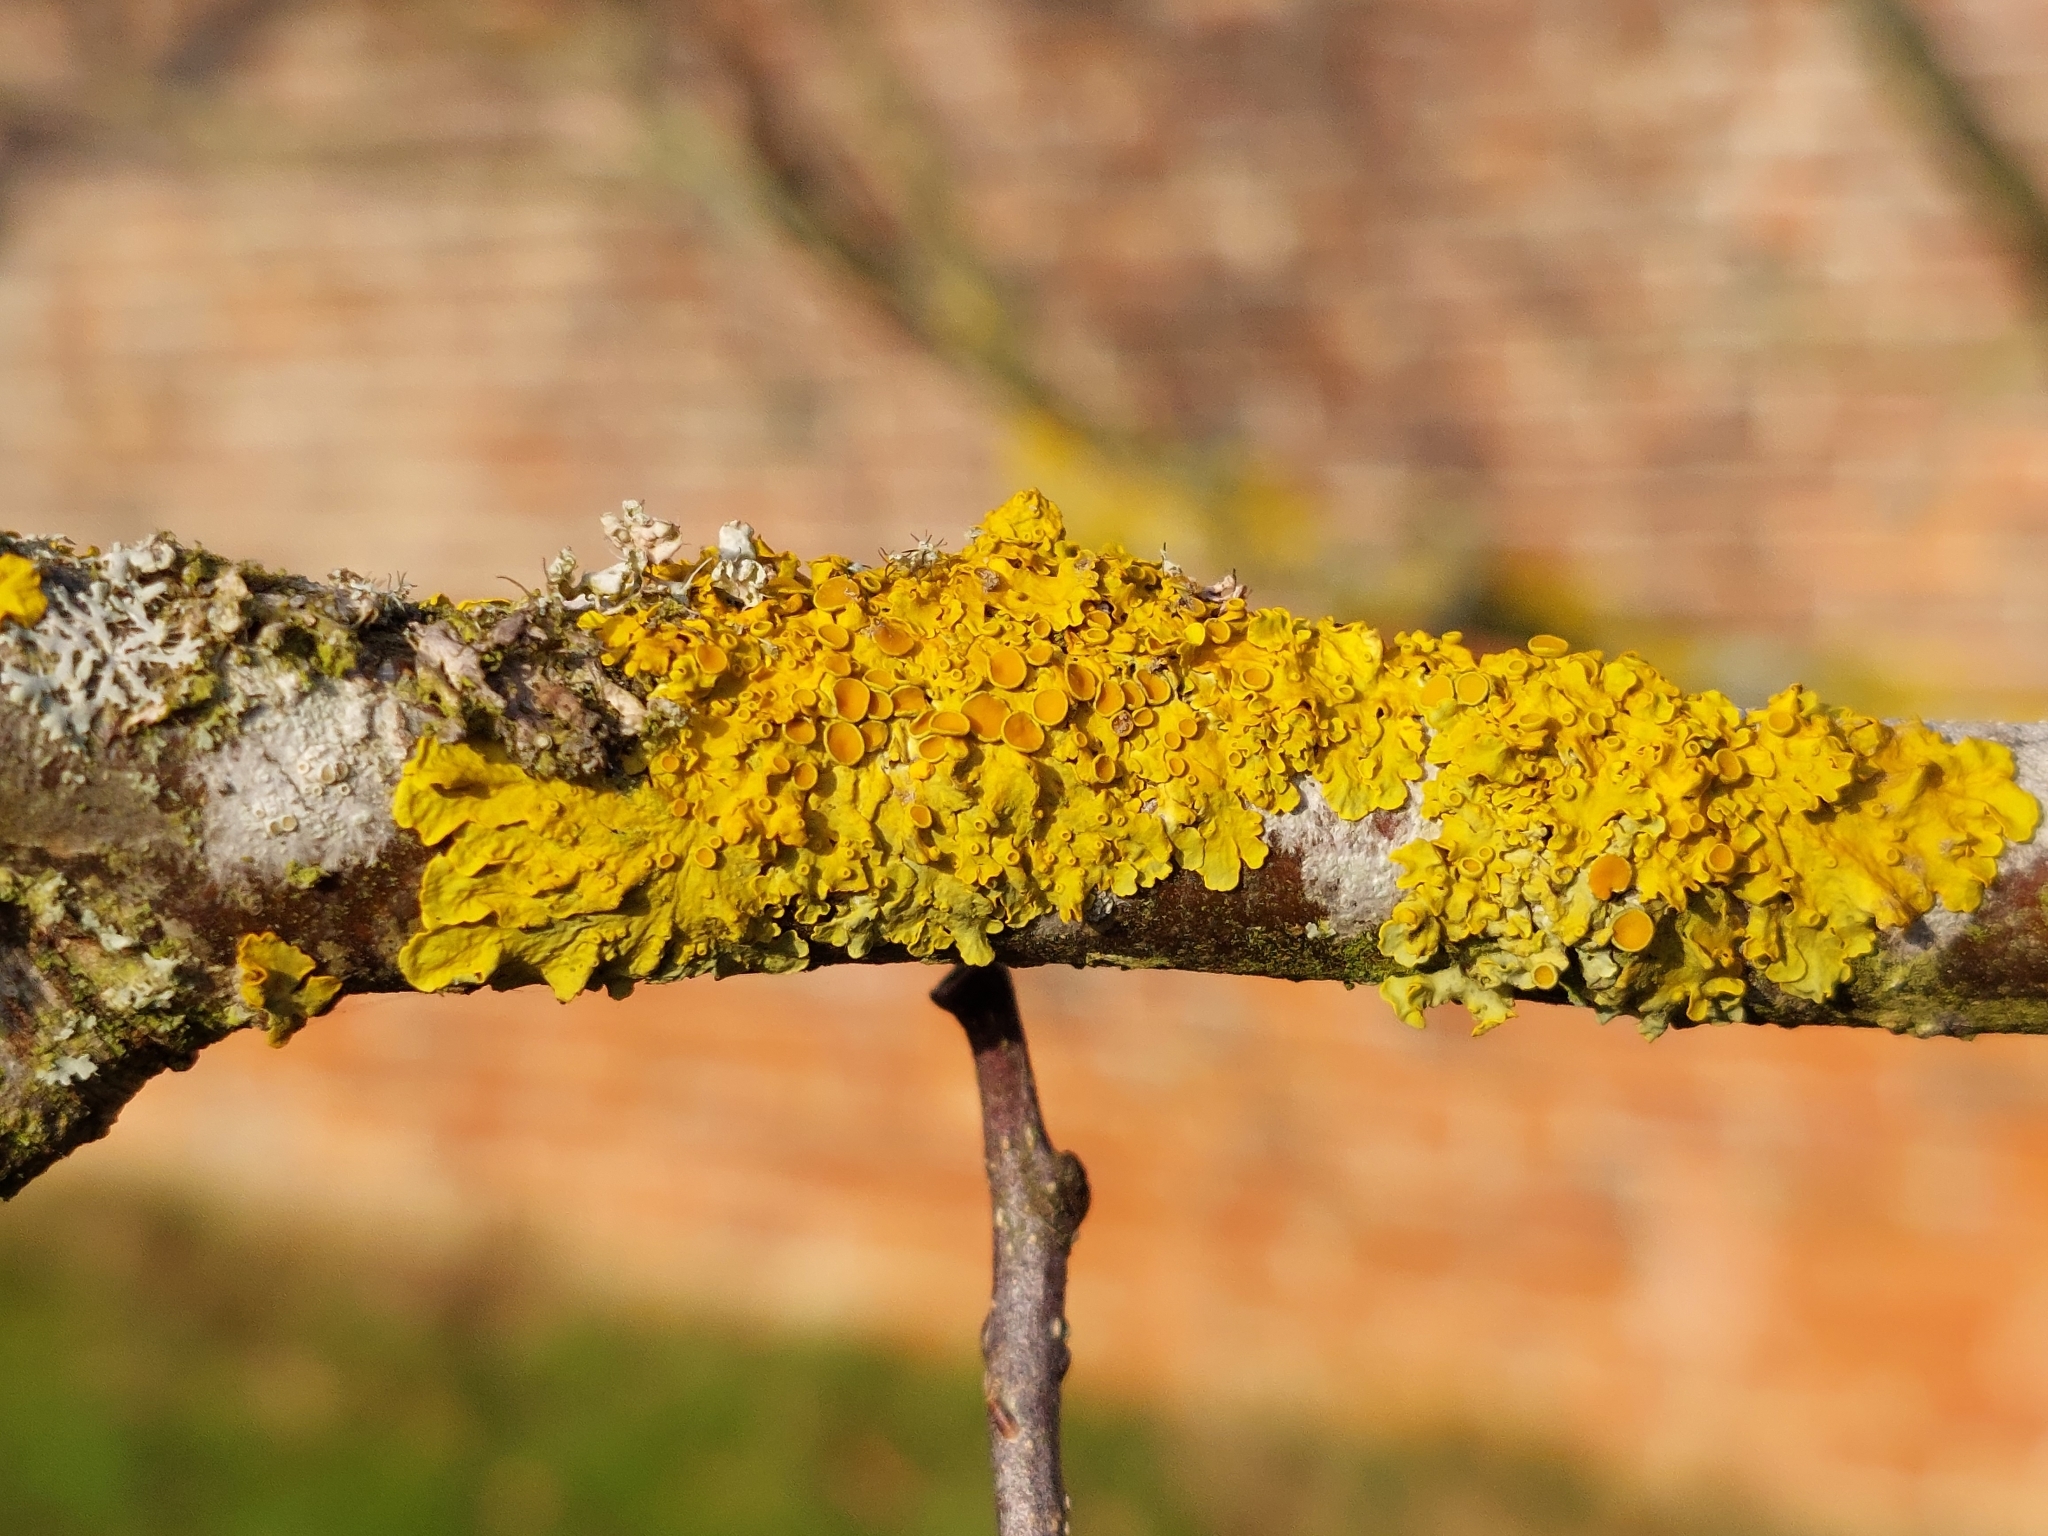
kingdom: Fungi
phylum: Ascomycota
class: Lecanoromycetes
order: Teloschistales
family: Teloschistaceae
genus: Xanthoria
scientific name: Xanthoria parietina
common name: Common orange lichen
